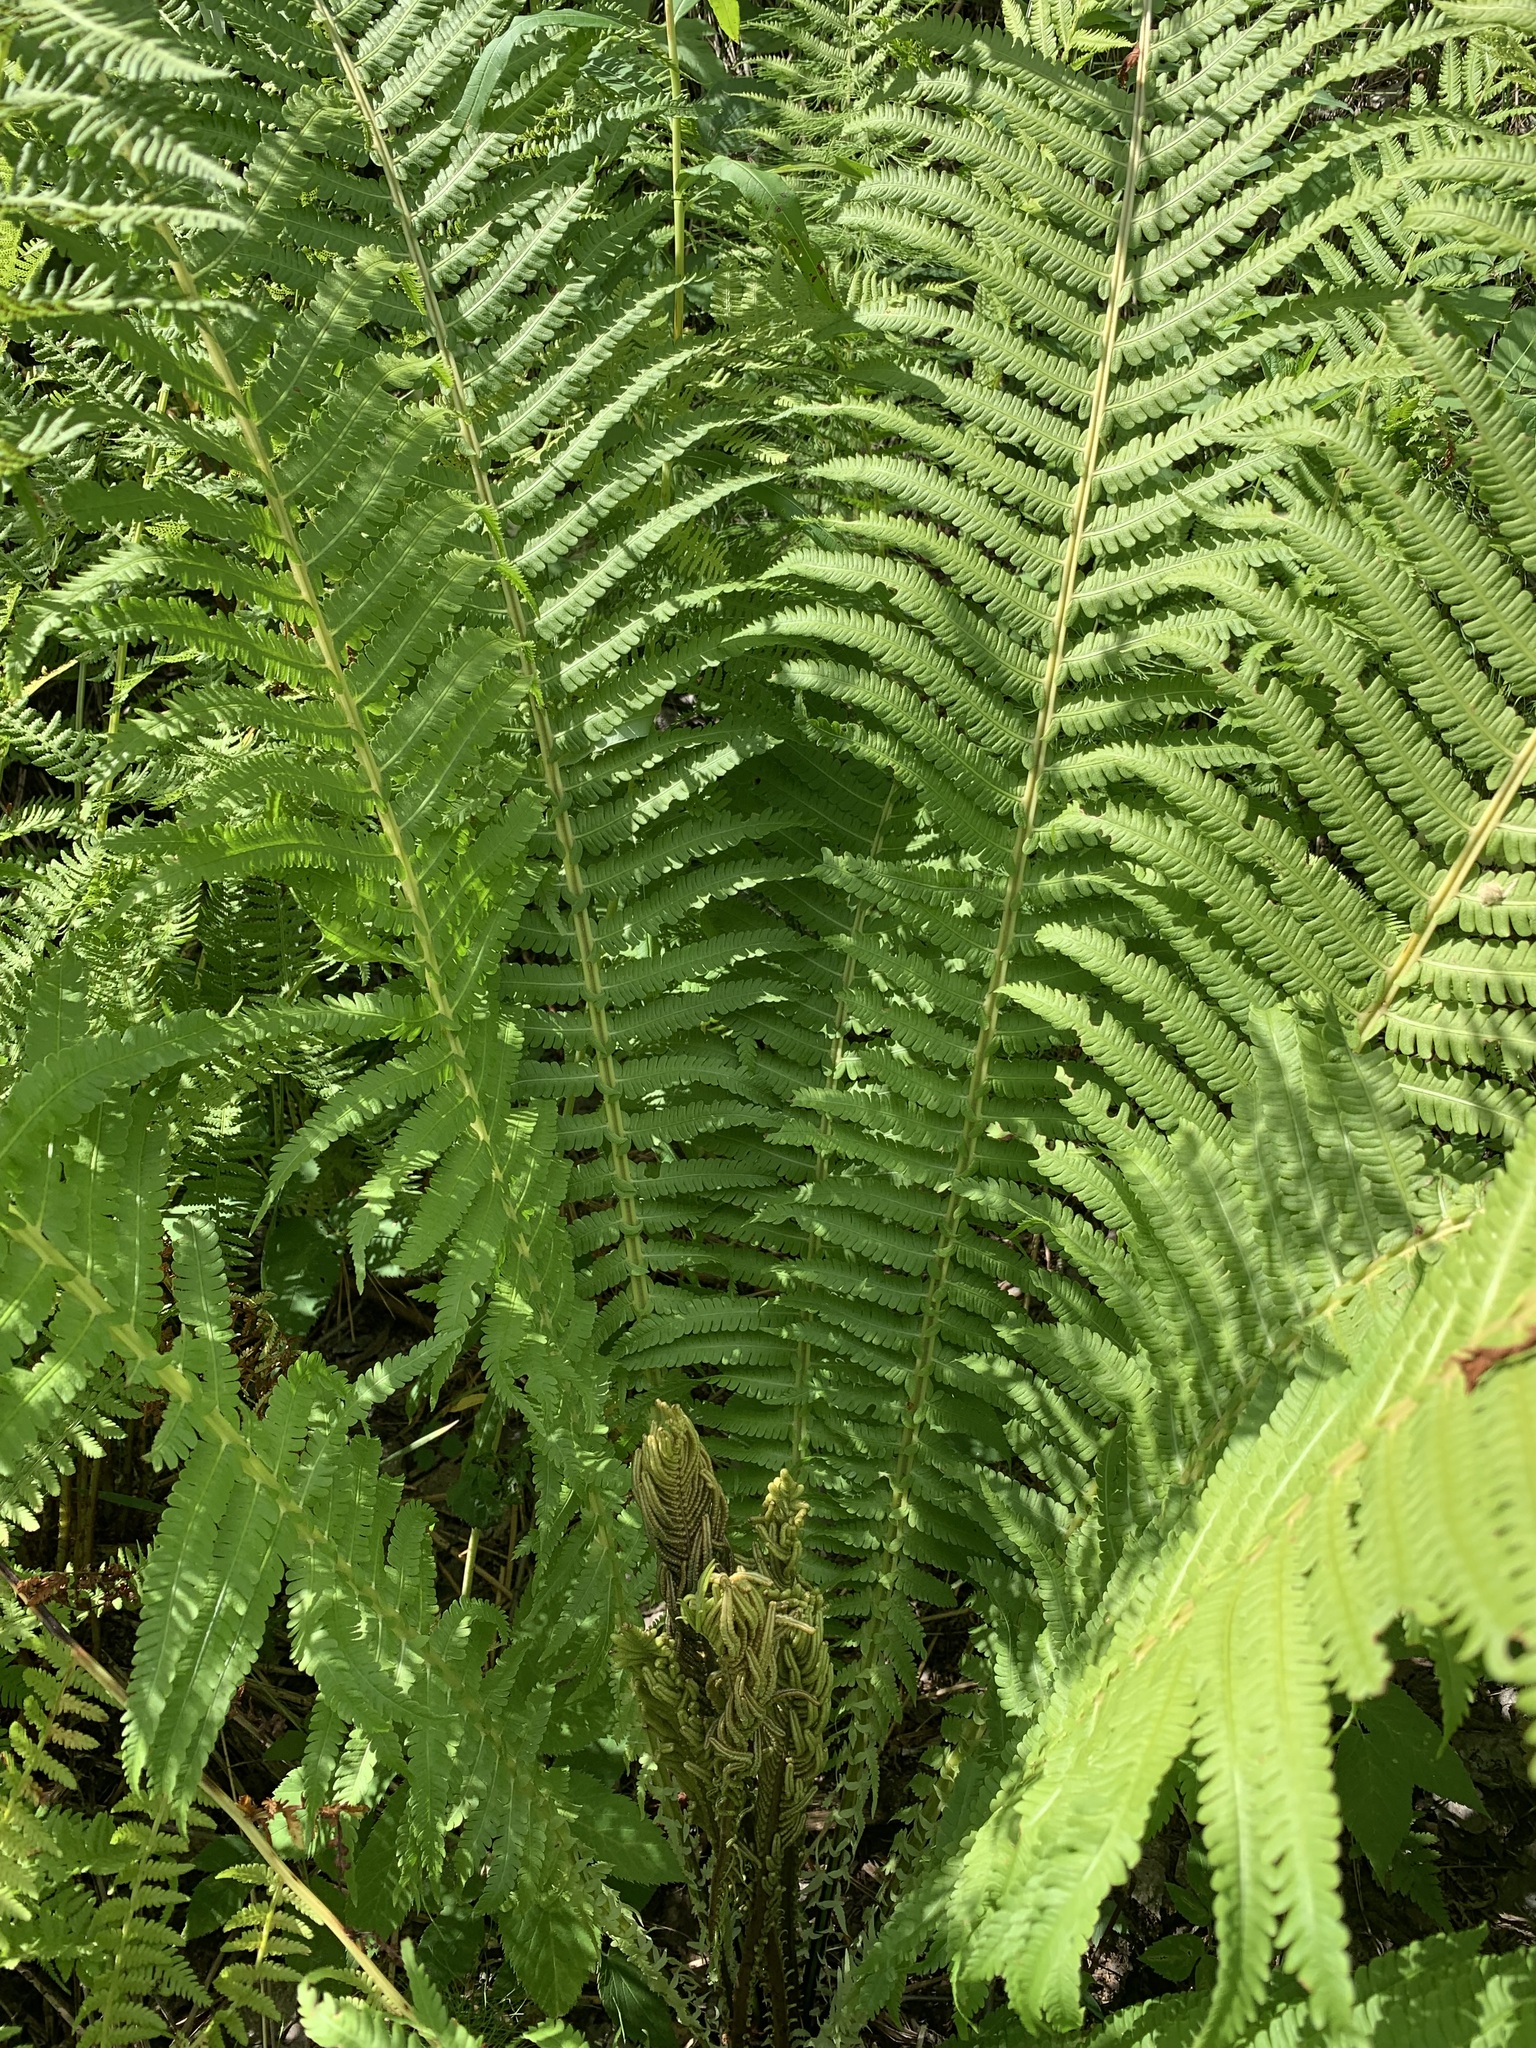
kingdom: Plantae
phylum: Tracheophyta
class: Polypodiopsida
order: Polypodiales
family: Onocleaceae
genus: Matteuccia
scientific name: Matteuccia struthiopteris
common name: Ostrich fern
